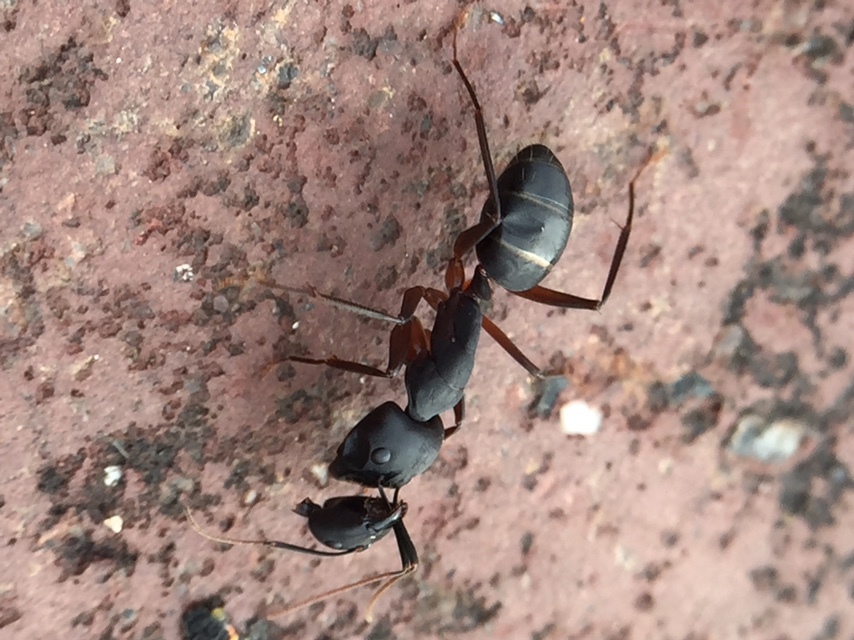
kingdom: Animalia
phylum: Arthropoda
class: Insecta
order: Hymenoptera
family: Formicidae
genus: Camponotus
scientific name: Camponotus compressus
